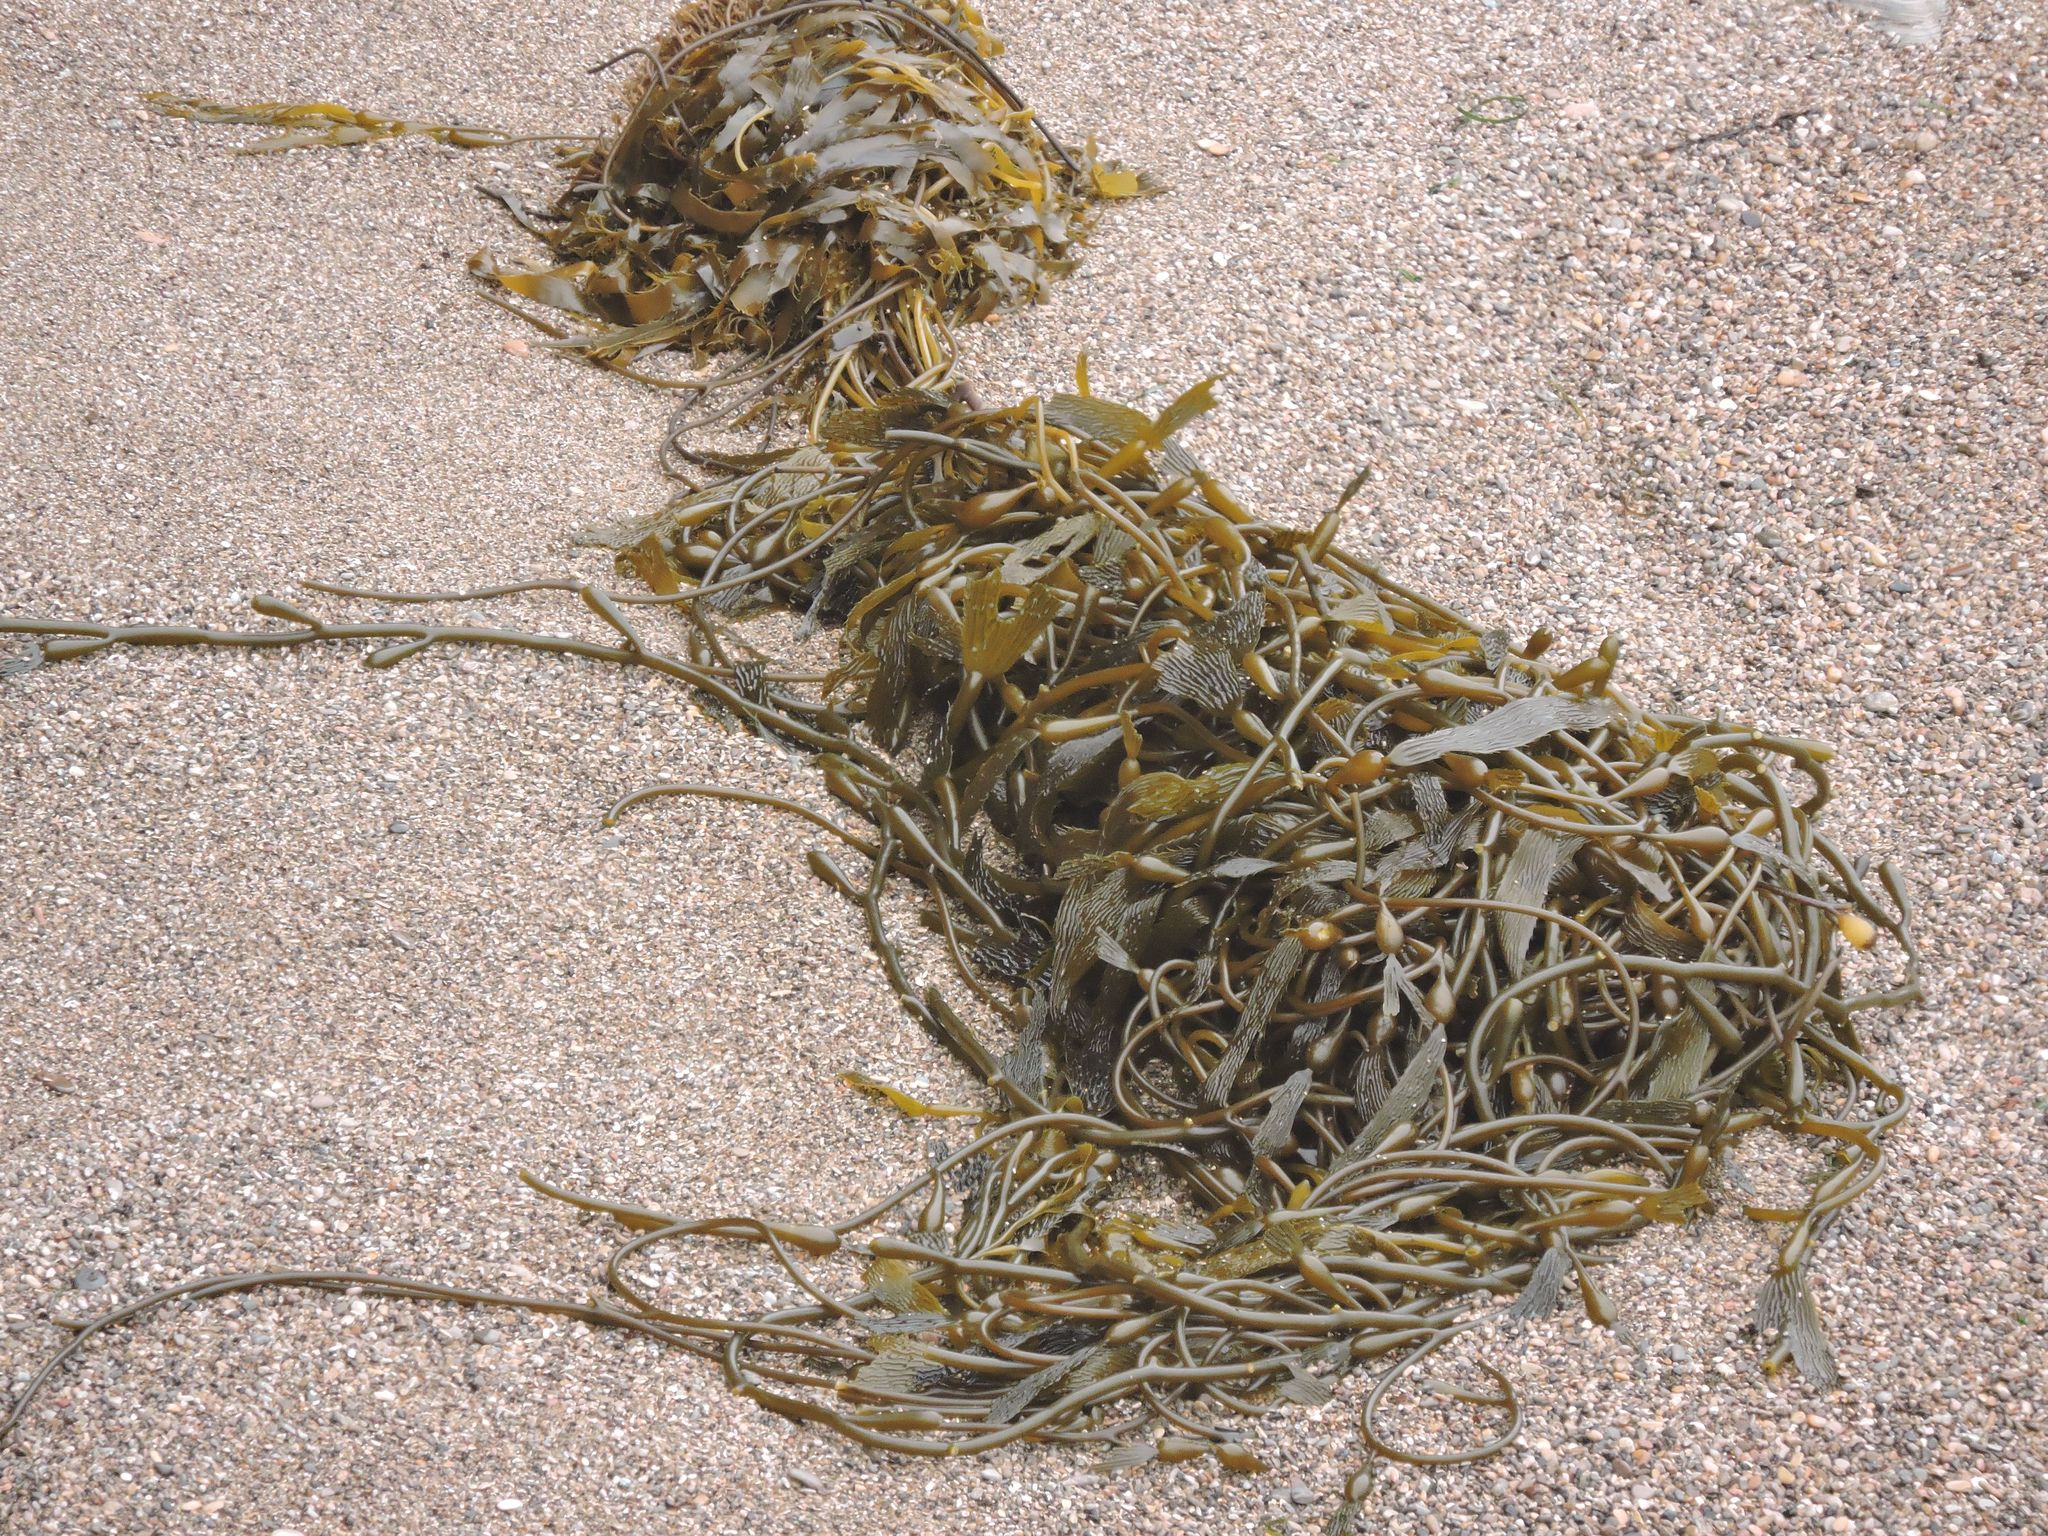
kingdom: Chromista
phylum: Ochrophyta
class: Phaeophyceae
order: Laminariales
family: Laminariaceae
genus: Macrocystis
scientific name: Macrocystis pyrifera
